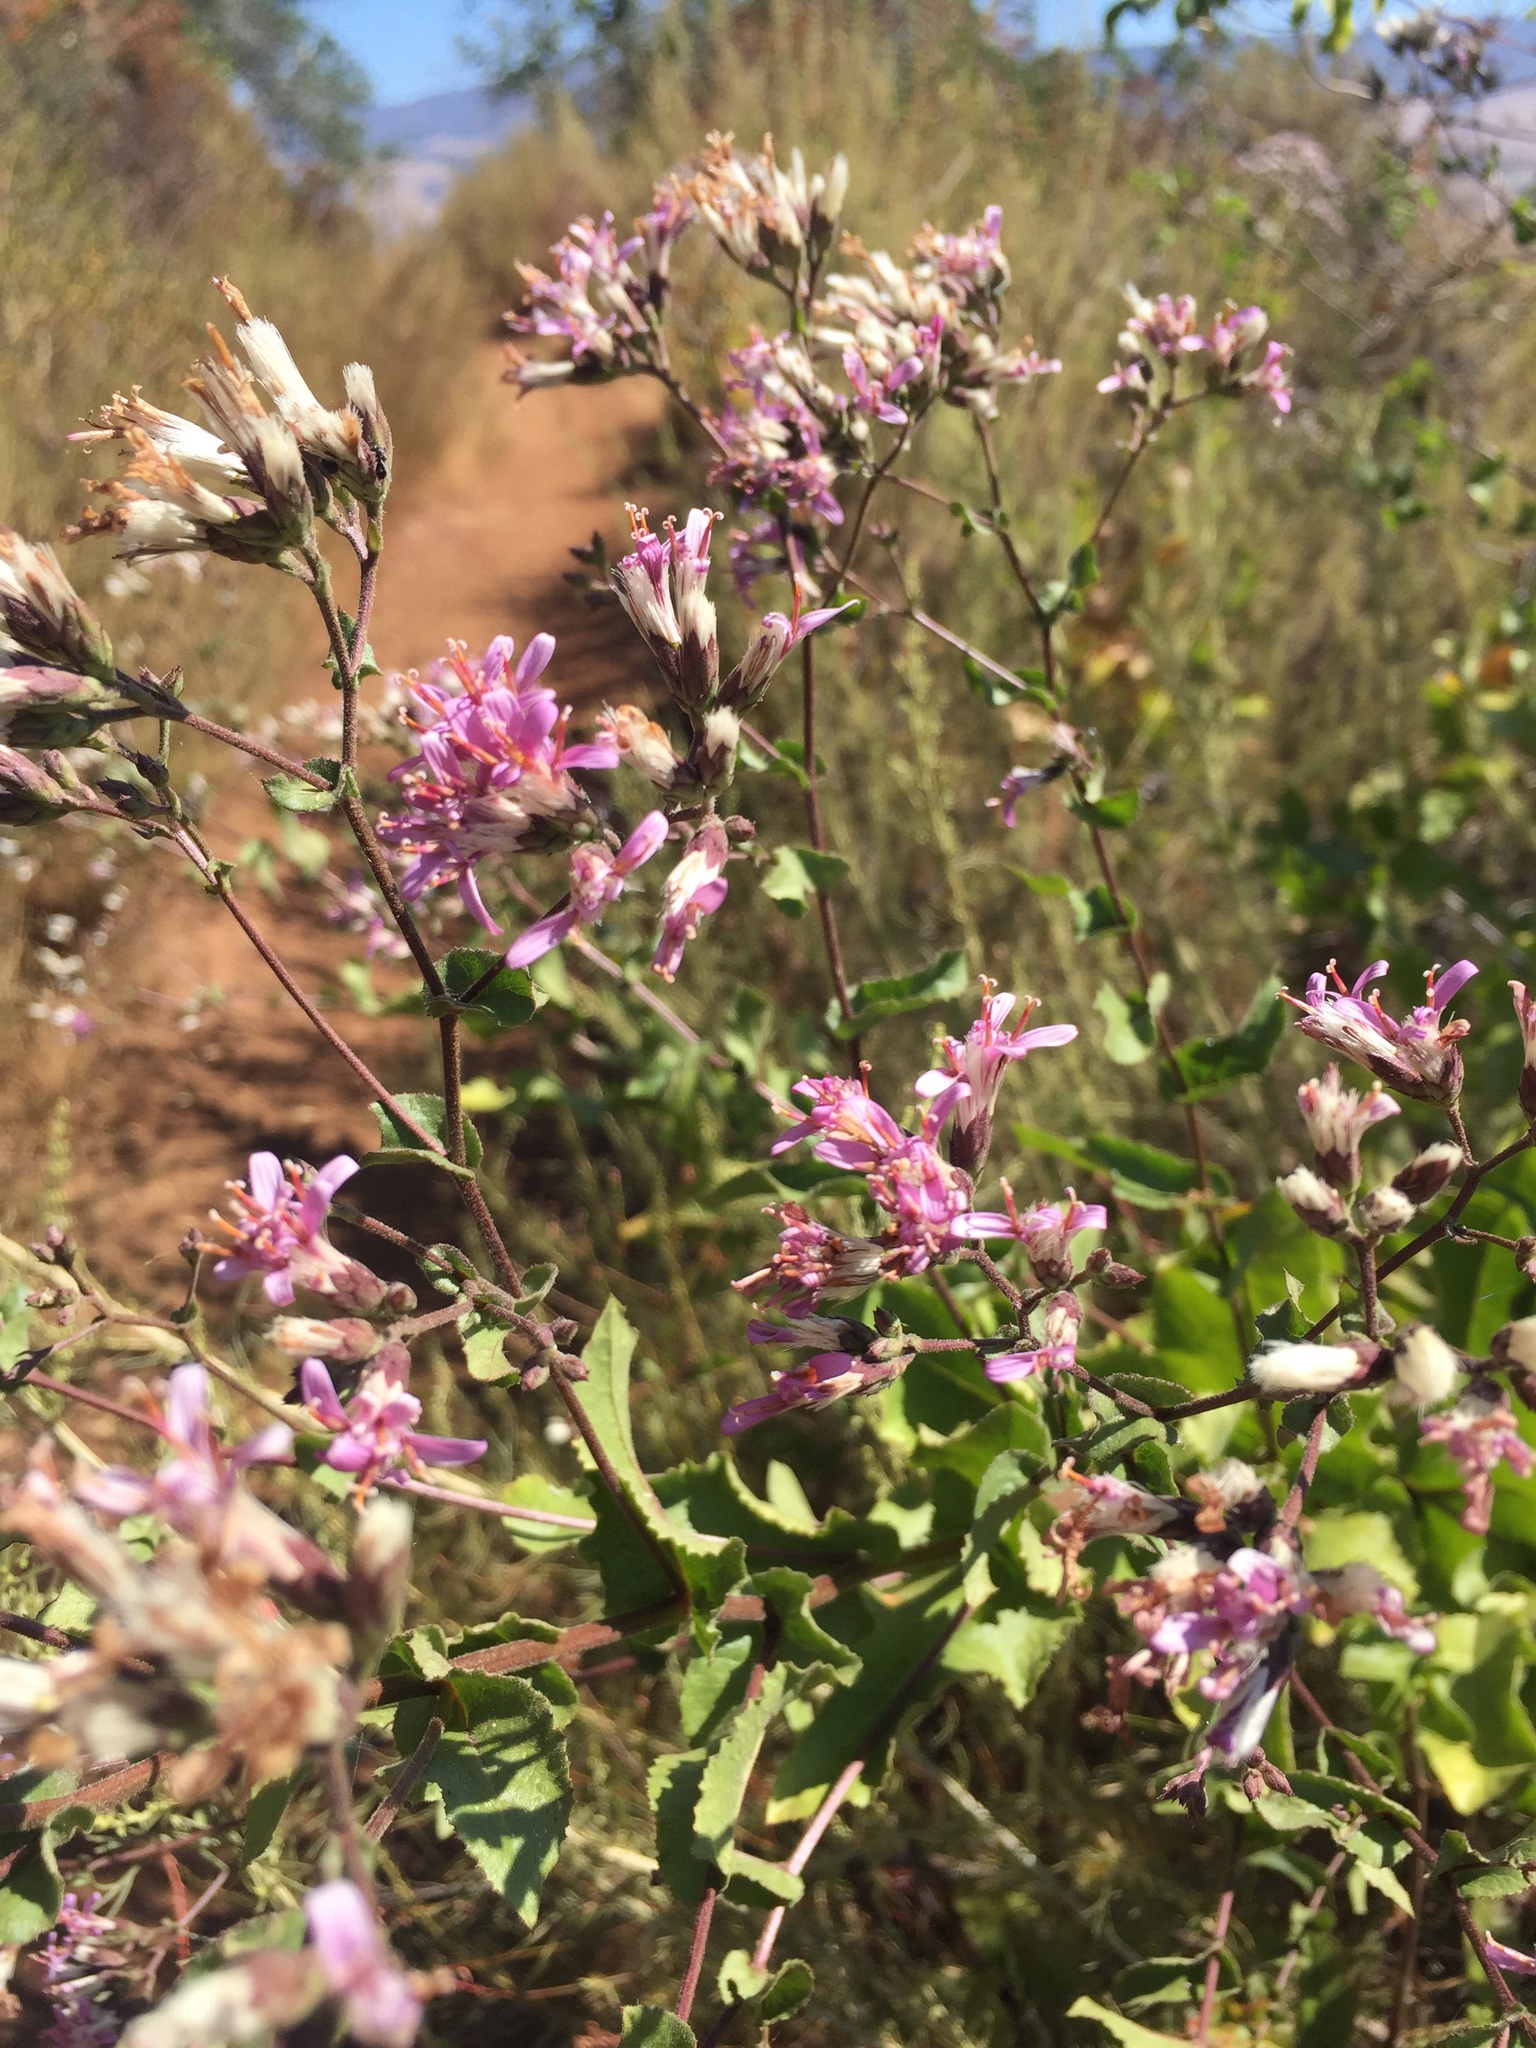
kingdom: Plantae
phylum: Tracheophyta
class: Magnoliopsida
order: Asterales
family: Asteraceae
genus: Acourtia
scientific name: Acourtia microcephala
